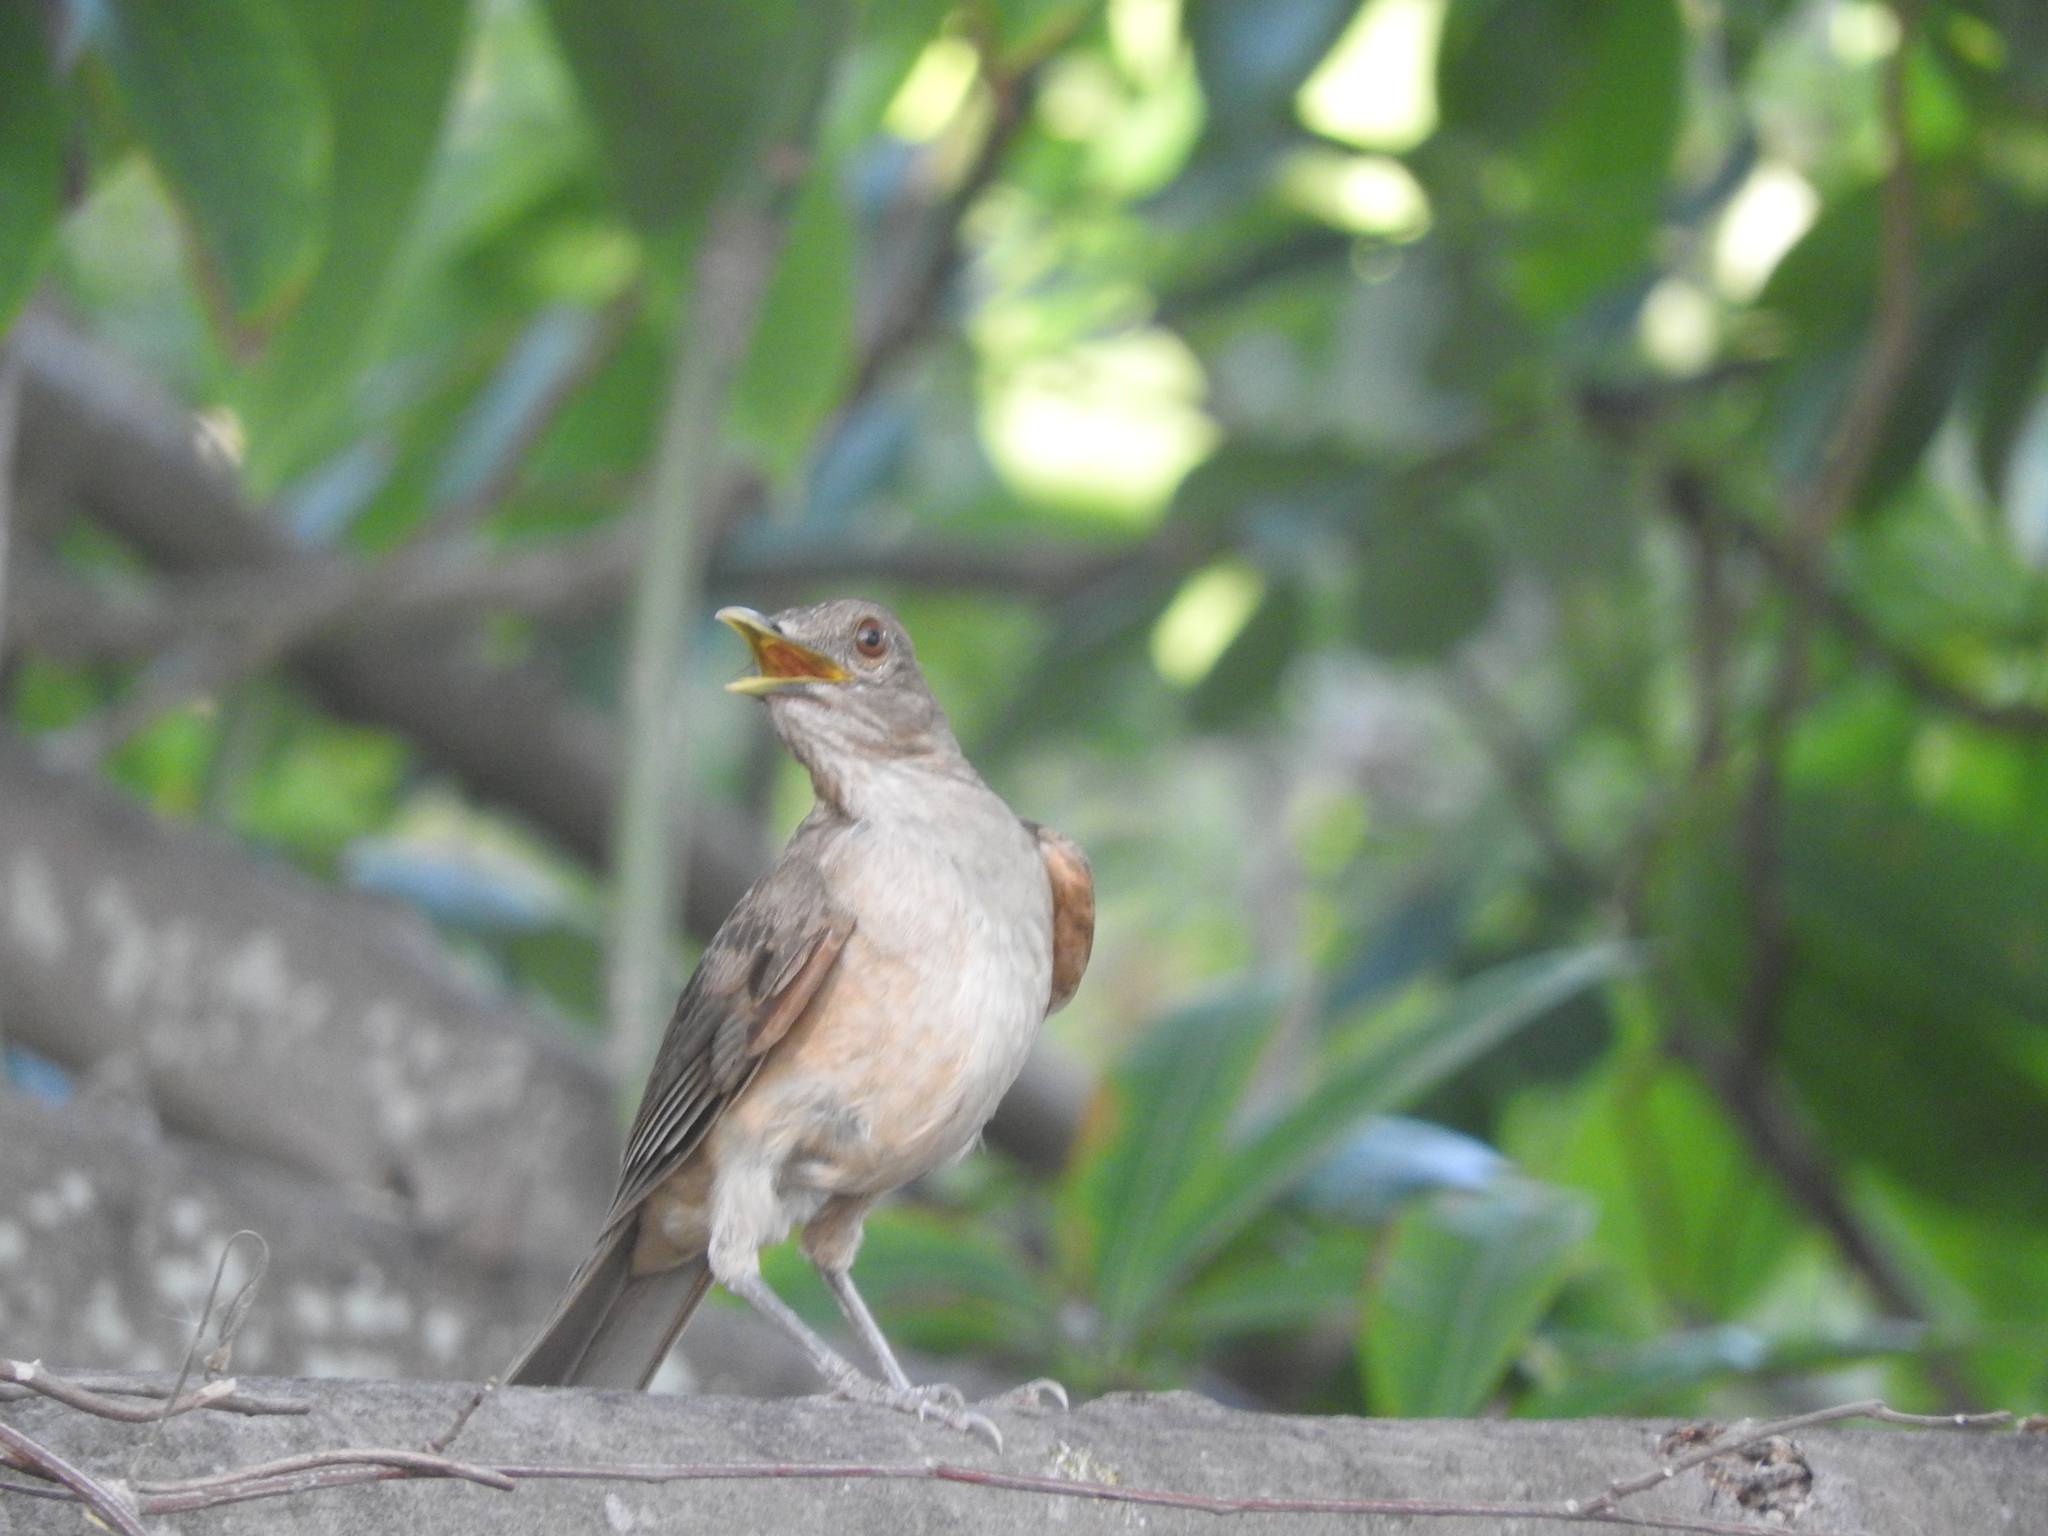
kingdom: Animalia
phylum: Chordata
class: Aves
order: Passeriformes
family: Turdidae
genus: Turdus
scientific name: Turdus grayi
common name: Clay-colored thrush
